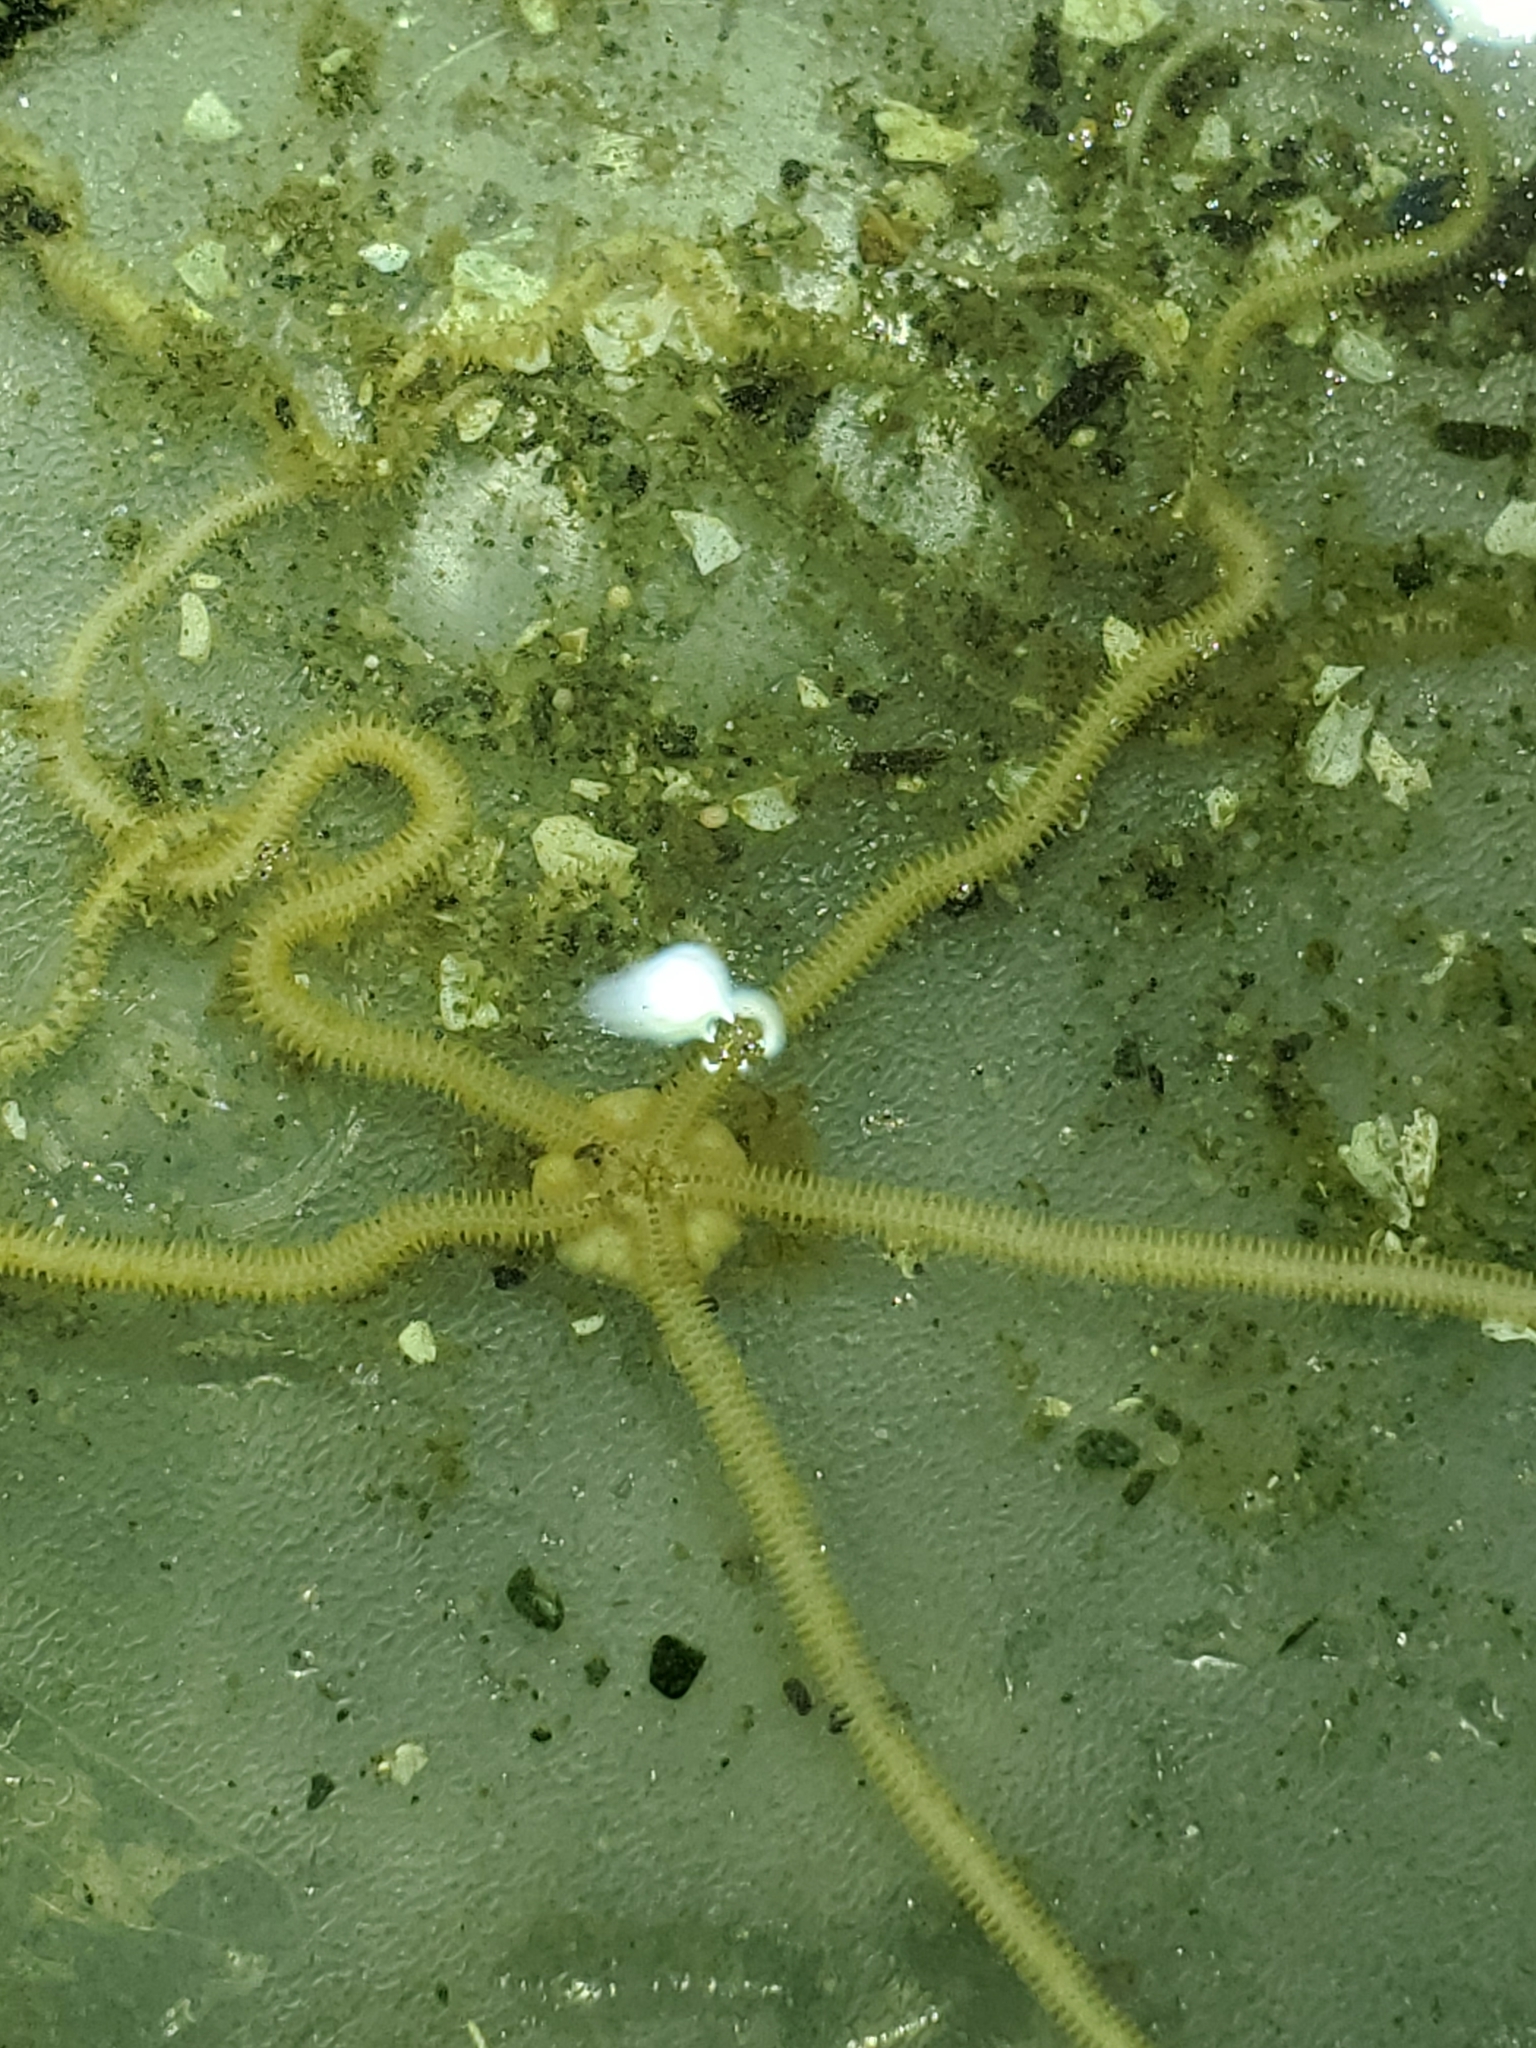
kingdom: Animalia
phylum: Echinodermata
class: Ophiuroidea
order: Amphilepidida
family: Amphiuridae
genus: Amphiodia
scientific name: Amphiodia occidentalis
